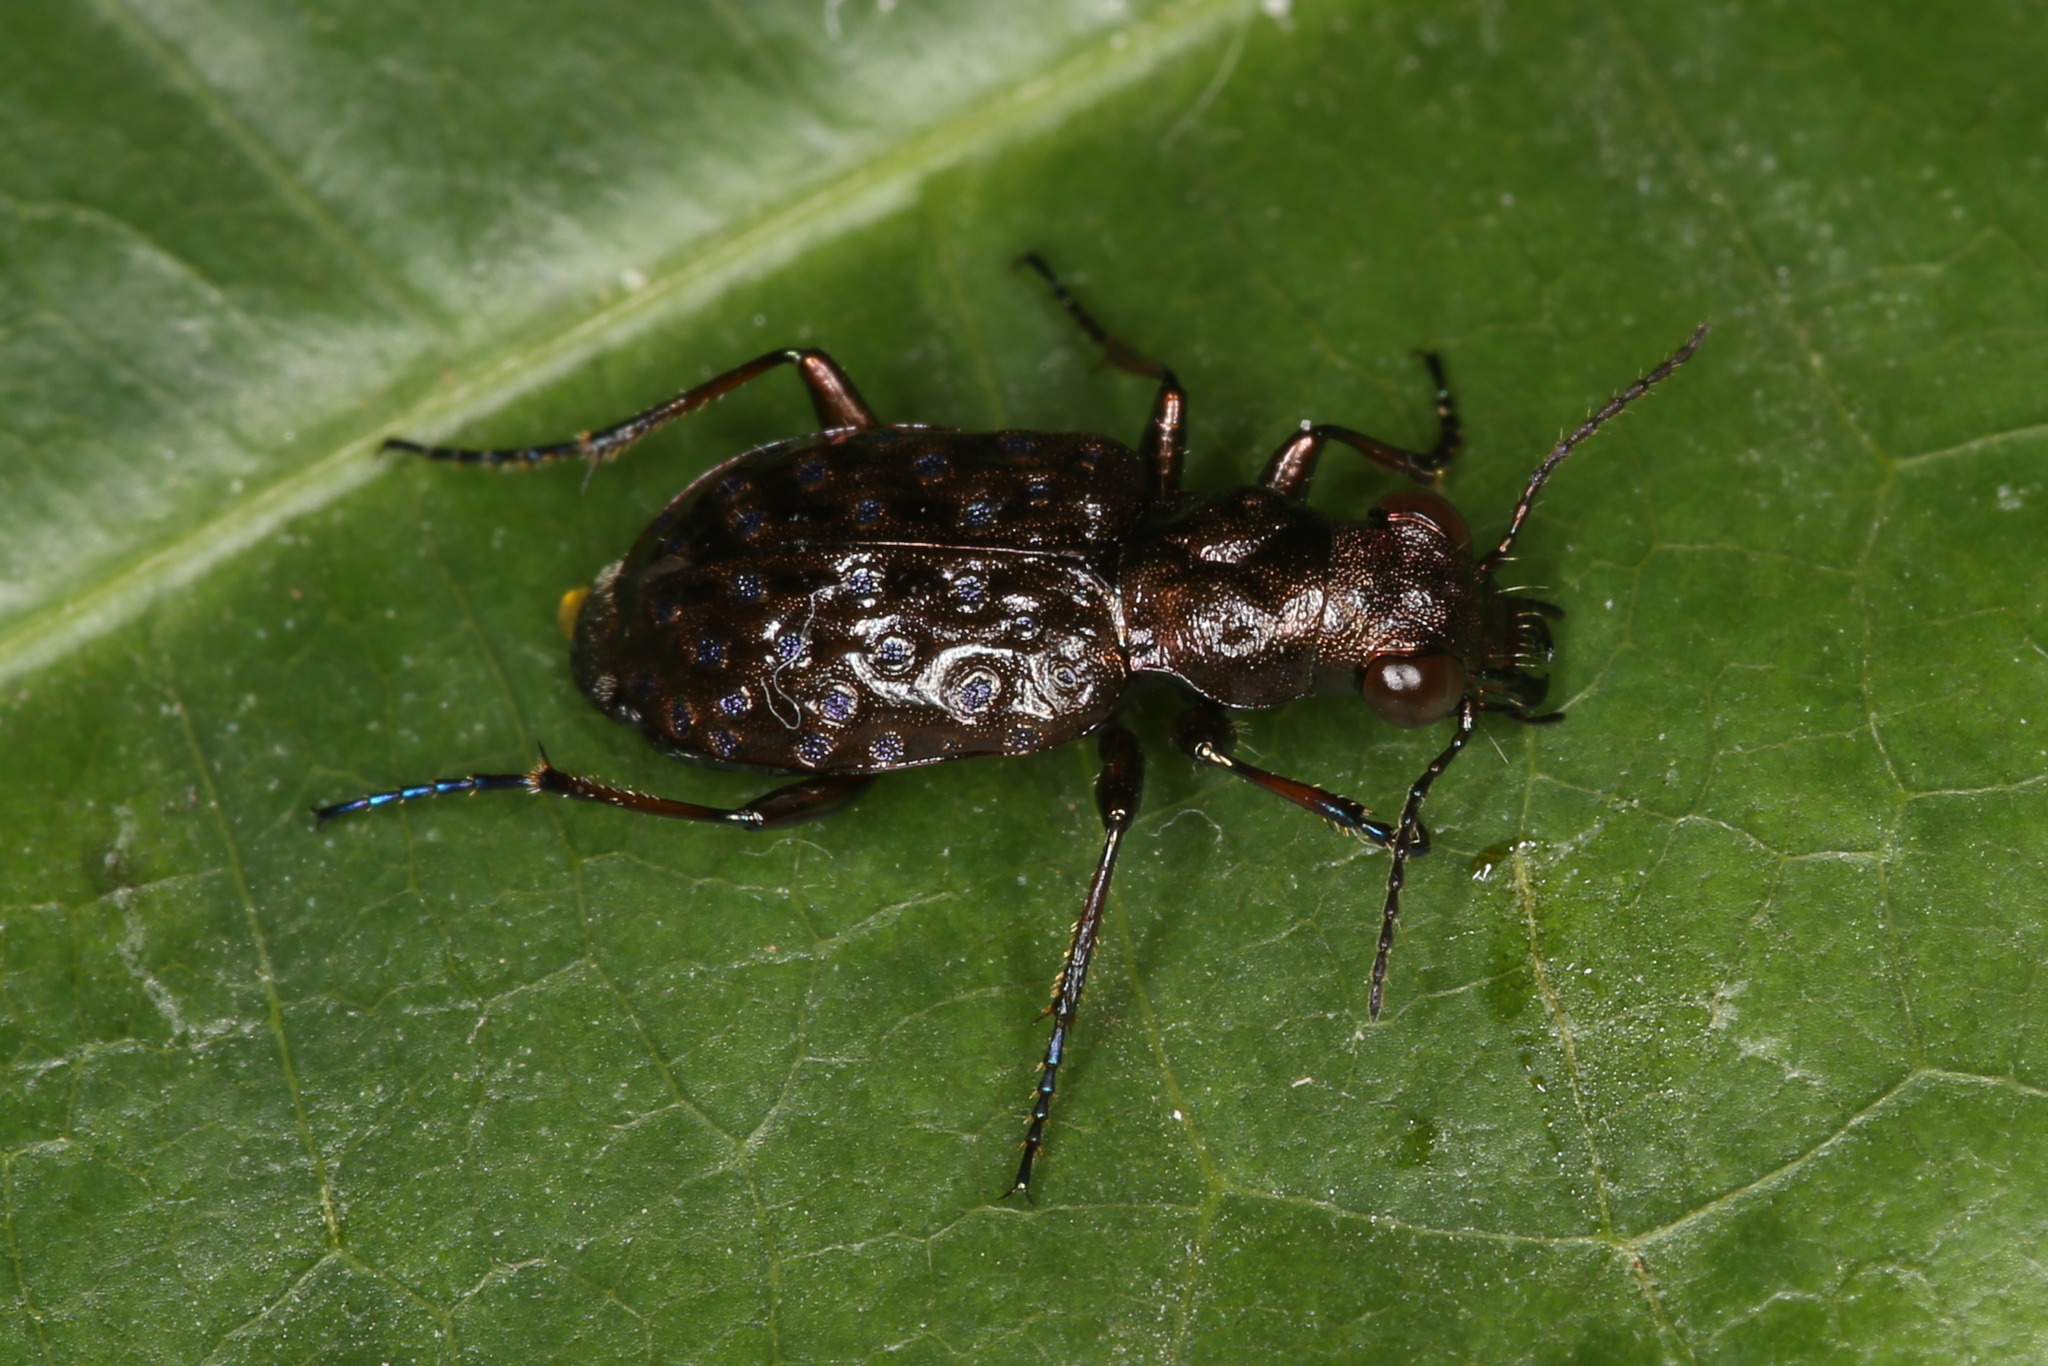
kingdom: Animalia
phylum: Arthropoda
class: Insecta
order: Coleoptera
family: Carabidae
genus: Elaphrus
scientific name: Elaphrus cupreus
